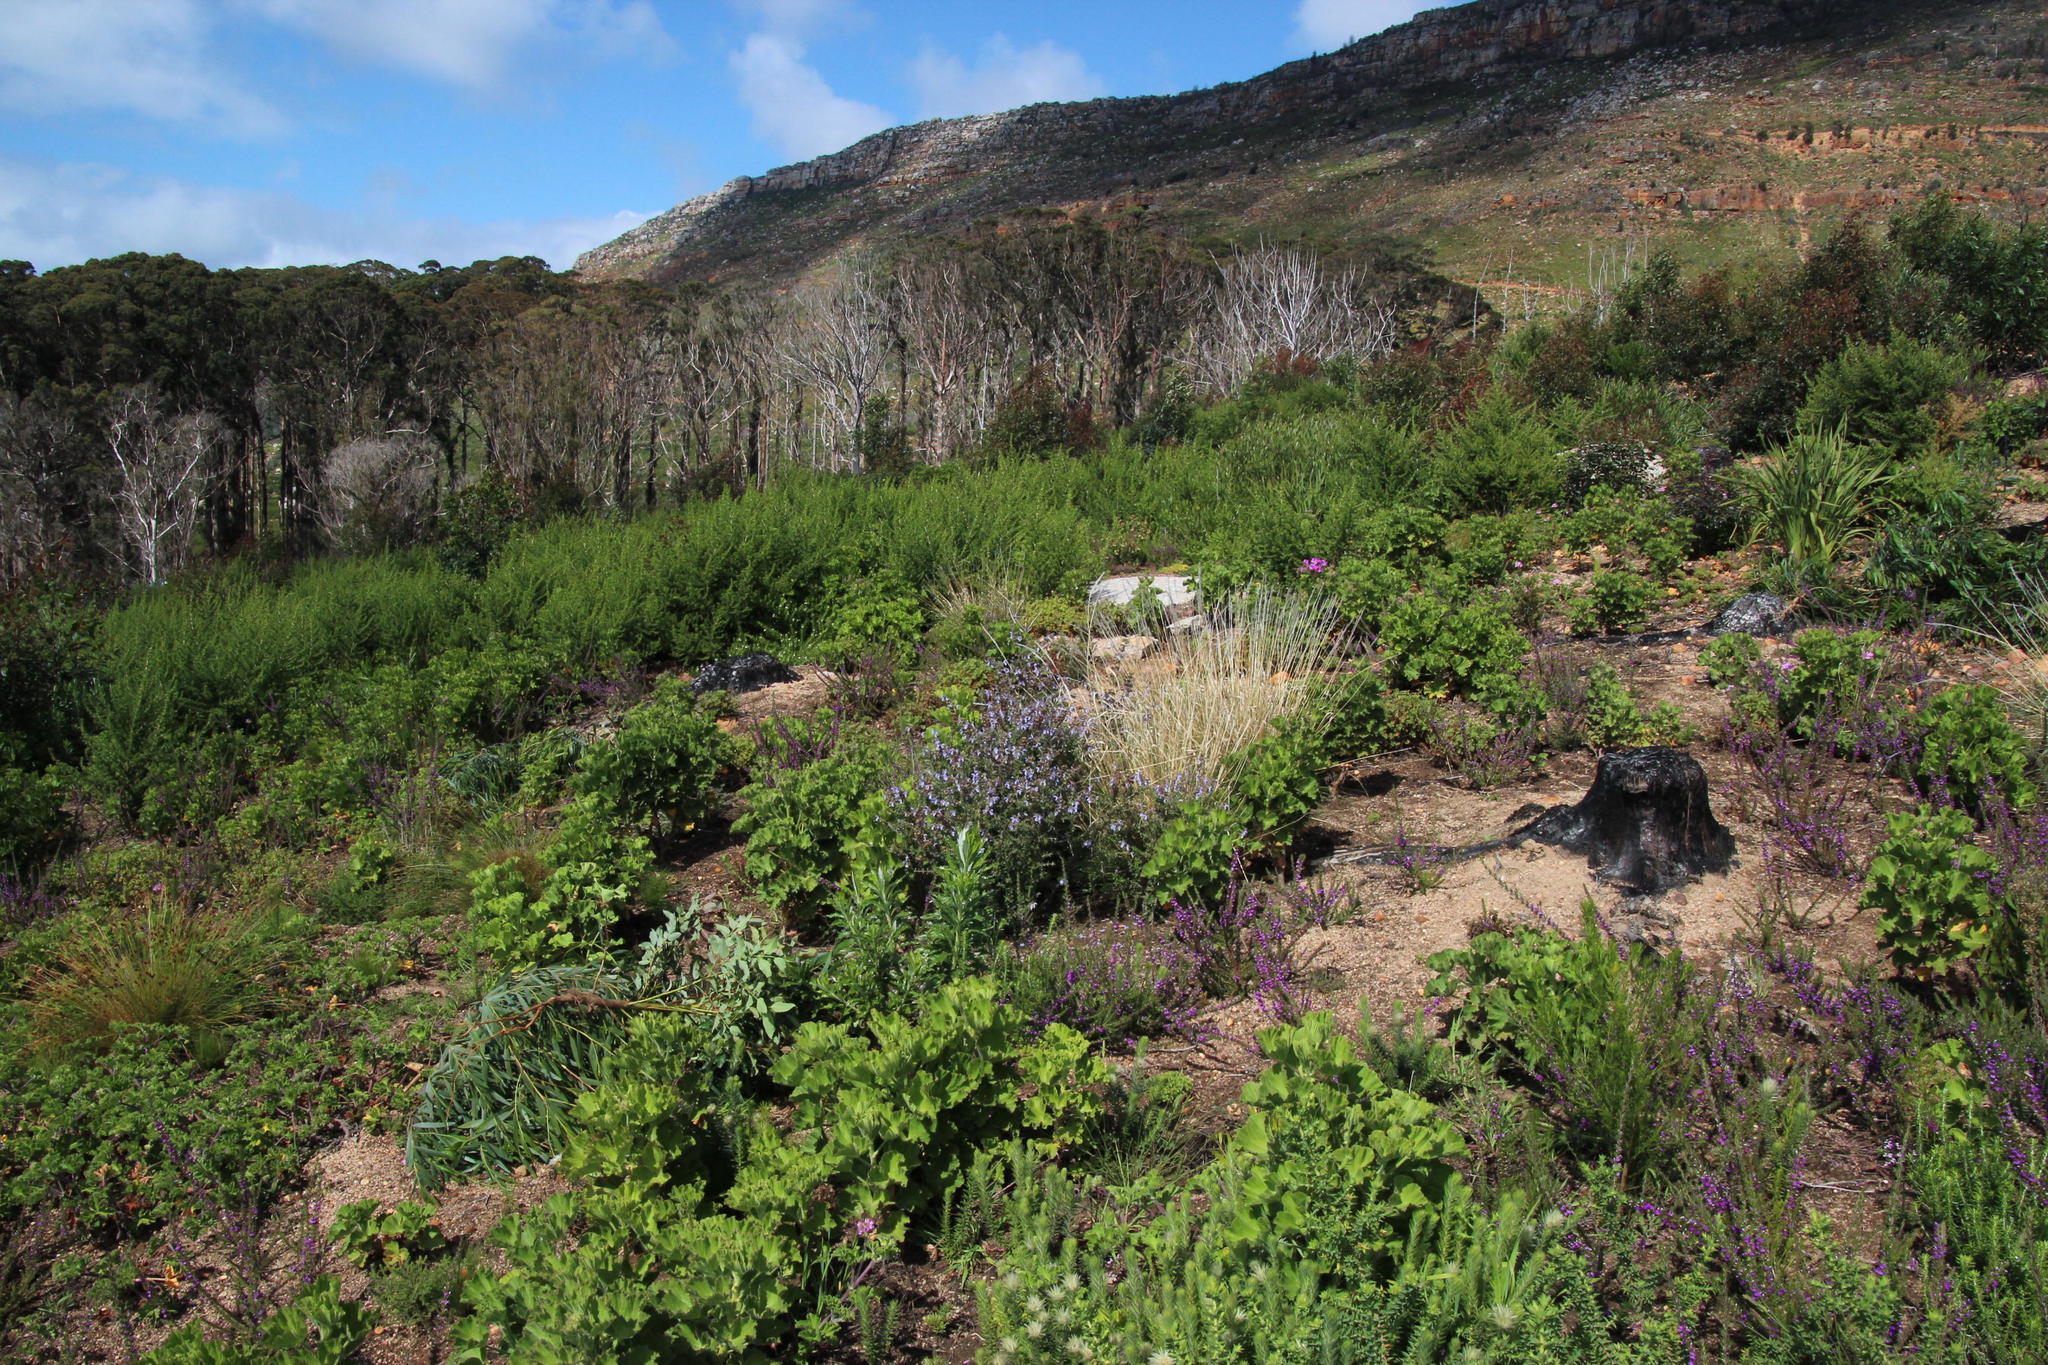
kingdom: Plantae
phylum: Tracheophyta
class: Magnoliopsida
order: Lamiales
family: Lamiaceae
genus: Salvia
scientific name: Salvia africana
